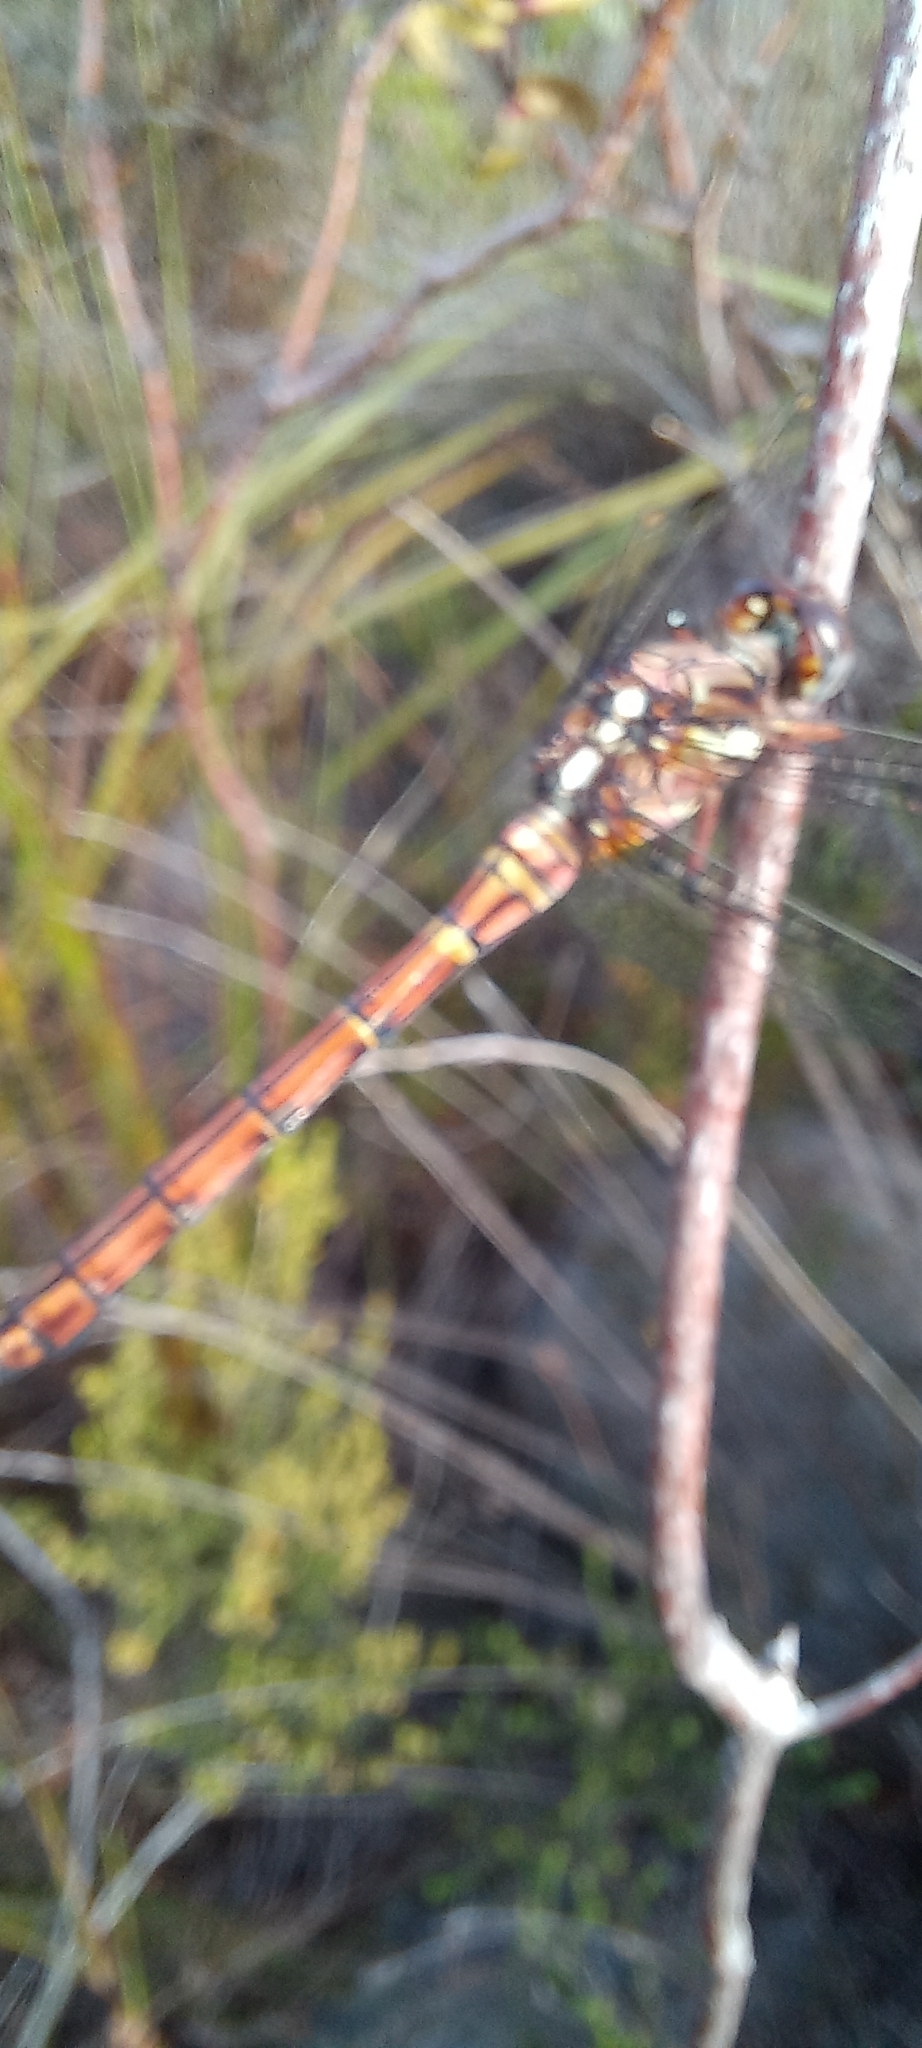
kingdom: Animalia
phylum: Arthropoda
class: Insecta
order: Odonata
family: Libellulidae
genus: Orthetrum
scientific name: Orthetrum julia
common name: Julia skimmer
